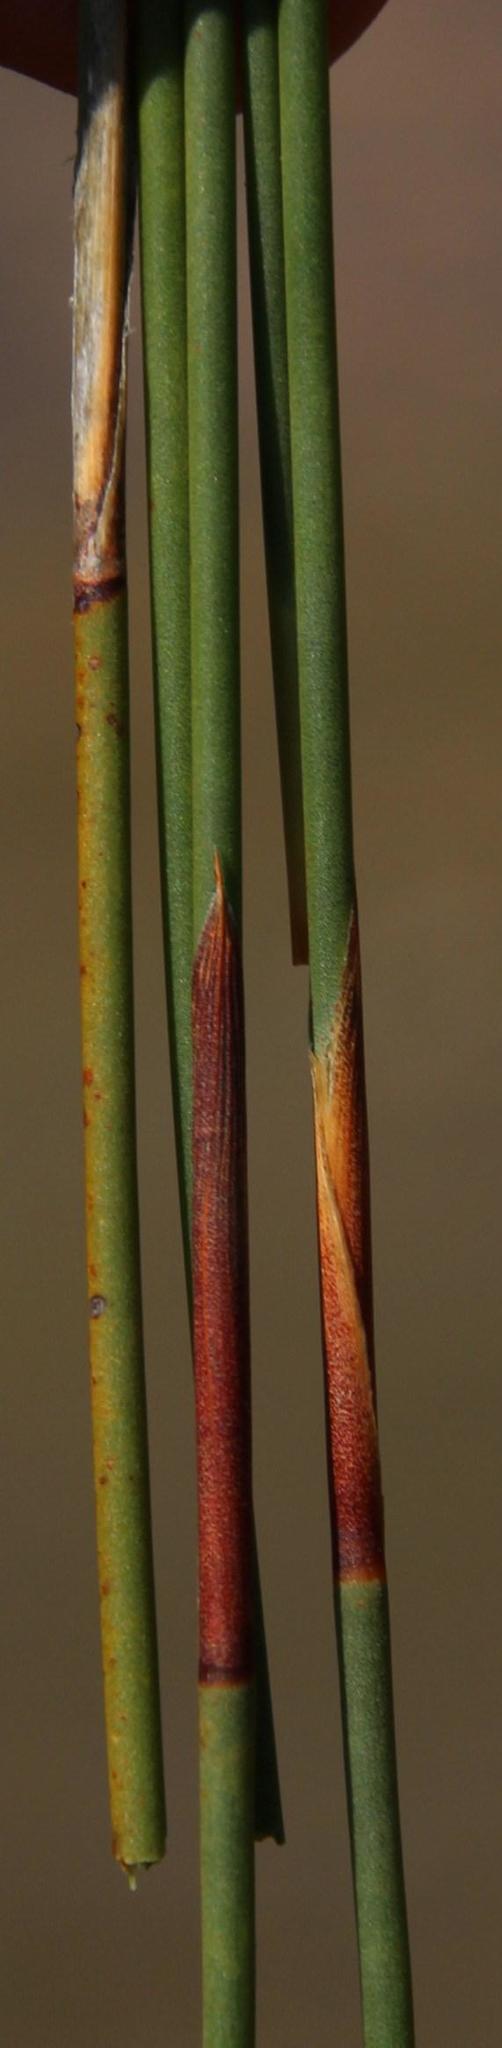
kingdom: Plantae
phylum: Tracheophyta
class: Liliopsida
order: Poales
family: Restionaceae
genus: Cannomois
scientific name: Cannomois parviflora
